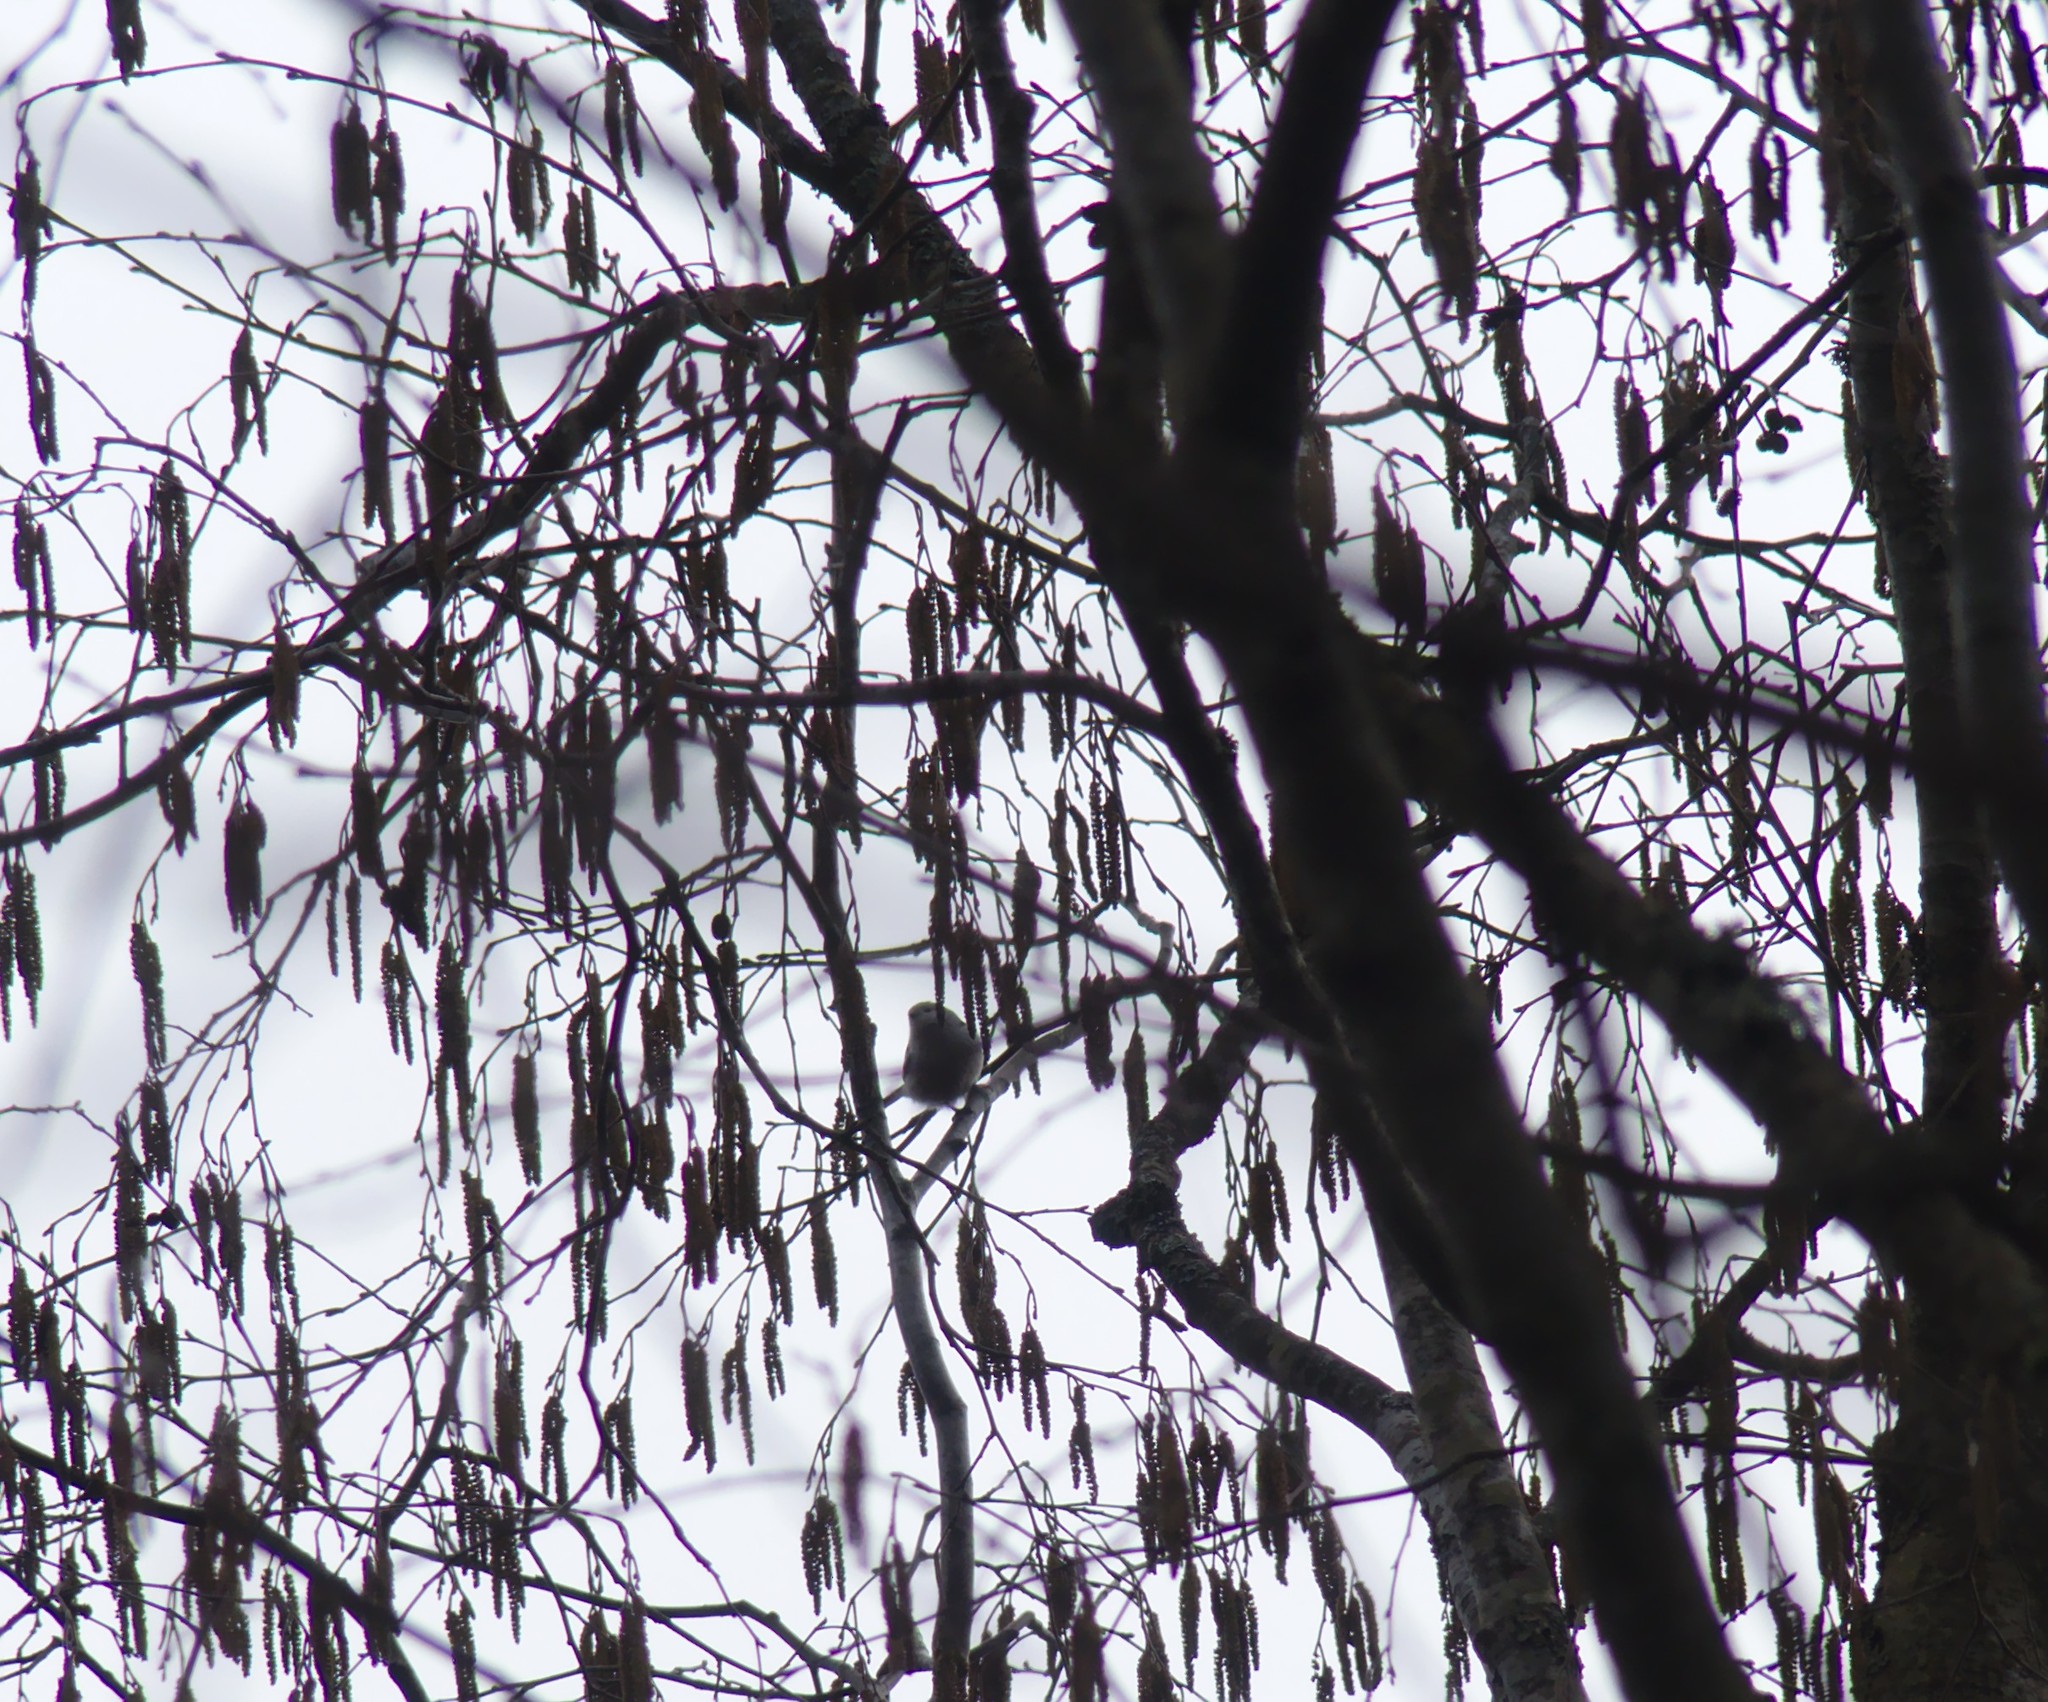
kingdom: Animalia
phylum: Chordata
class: Aves
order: Passeriformes
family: Aegithalidae
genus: Aegithalos
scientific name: Aegithalos caudatus
